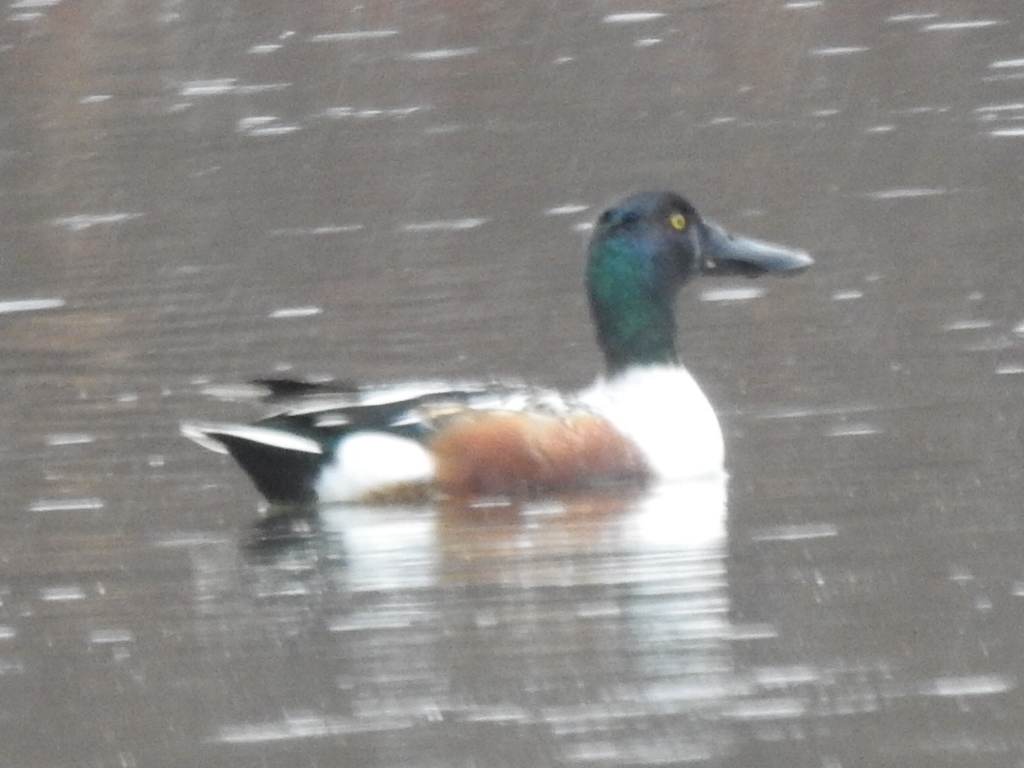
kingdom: Animalia
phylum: Chordata
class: Aves
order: Anseriformes
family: Anatidae
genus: Spatula
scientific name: Spatula clypeata
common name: Northern shoveler
